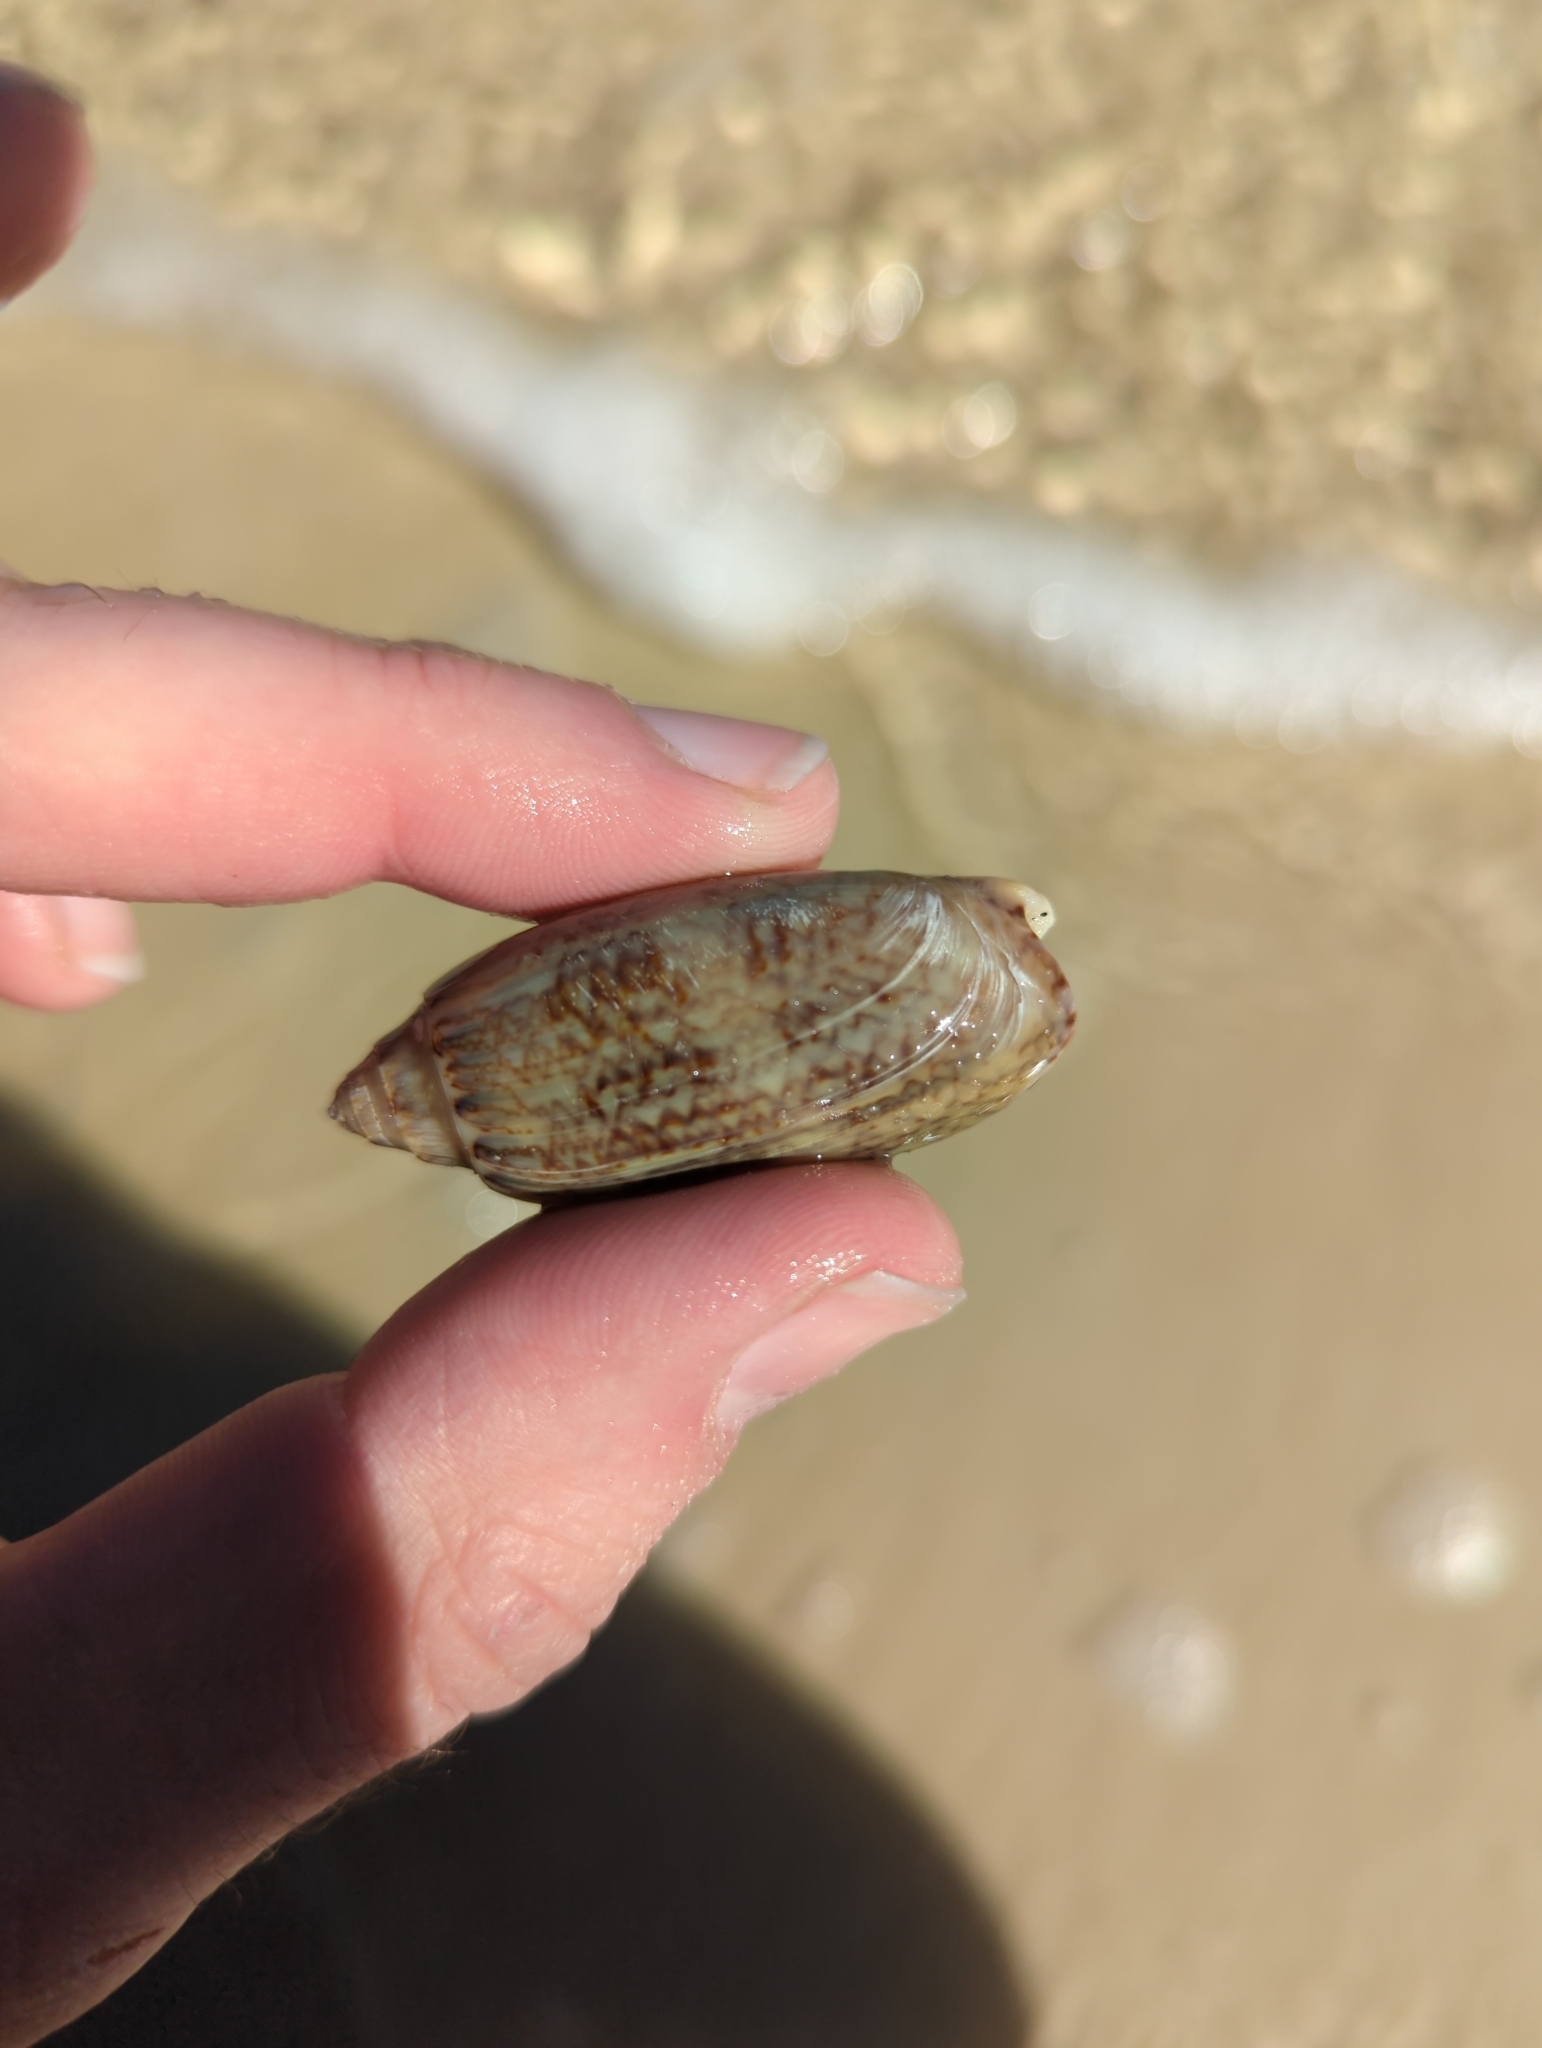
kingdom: Animalia
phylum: Mollusca
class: Gastropoda
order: Neogastropoda
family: Olividae
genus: Oliva
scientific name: Oliva sayana
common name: Lettered olive
